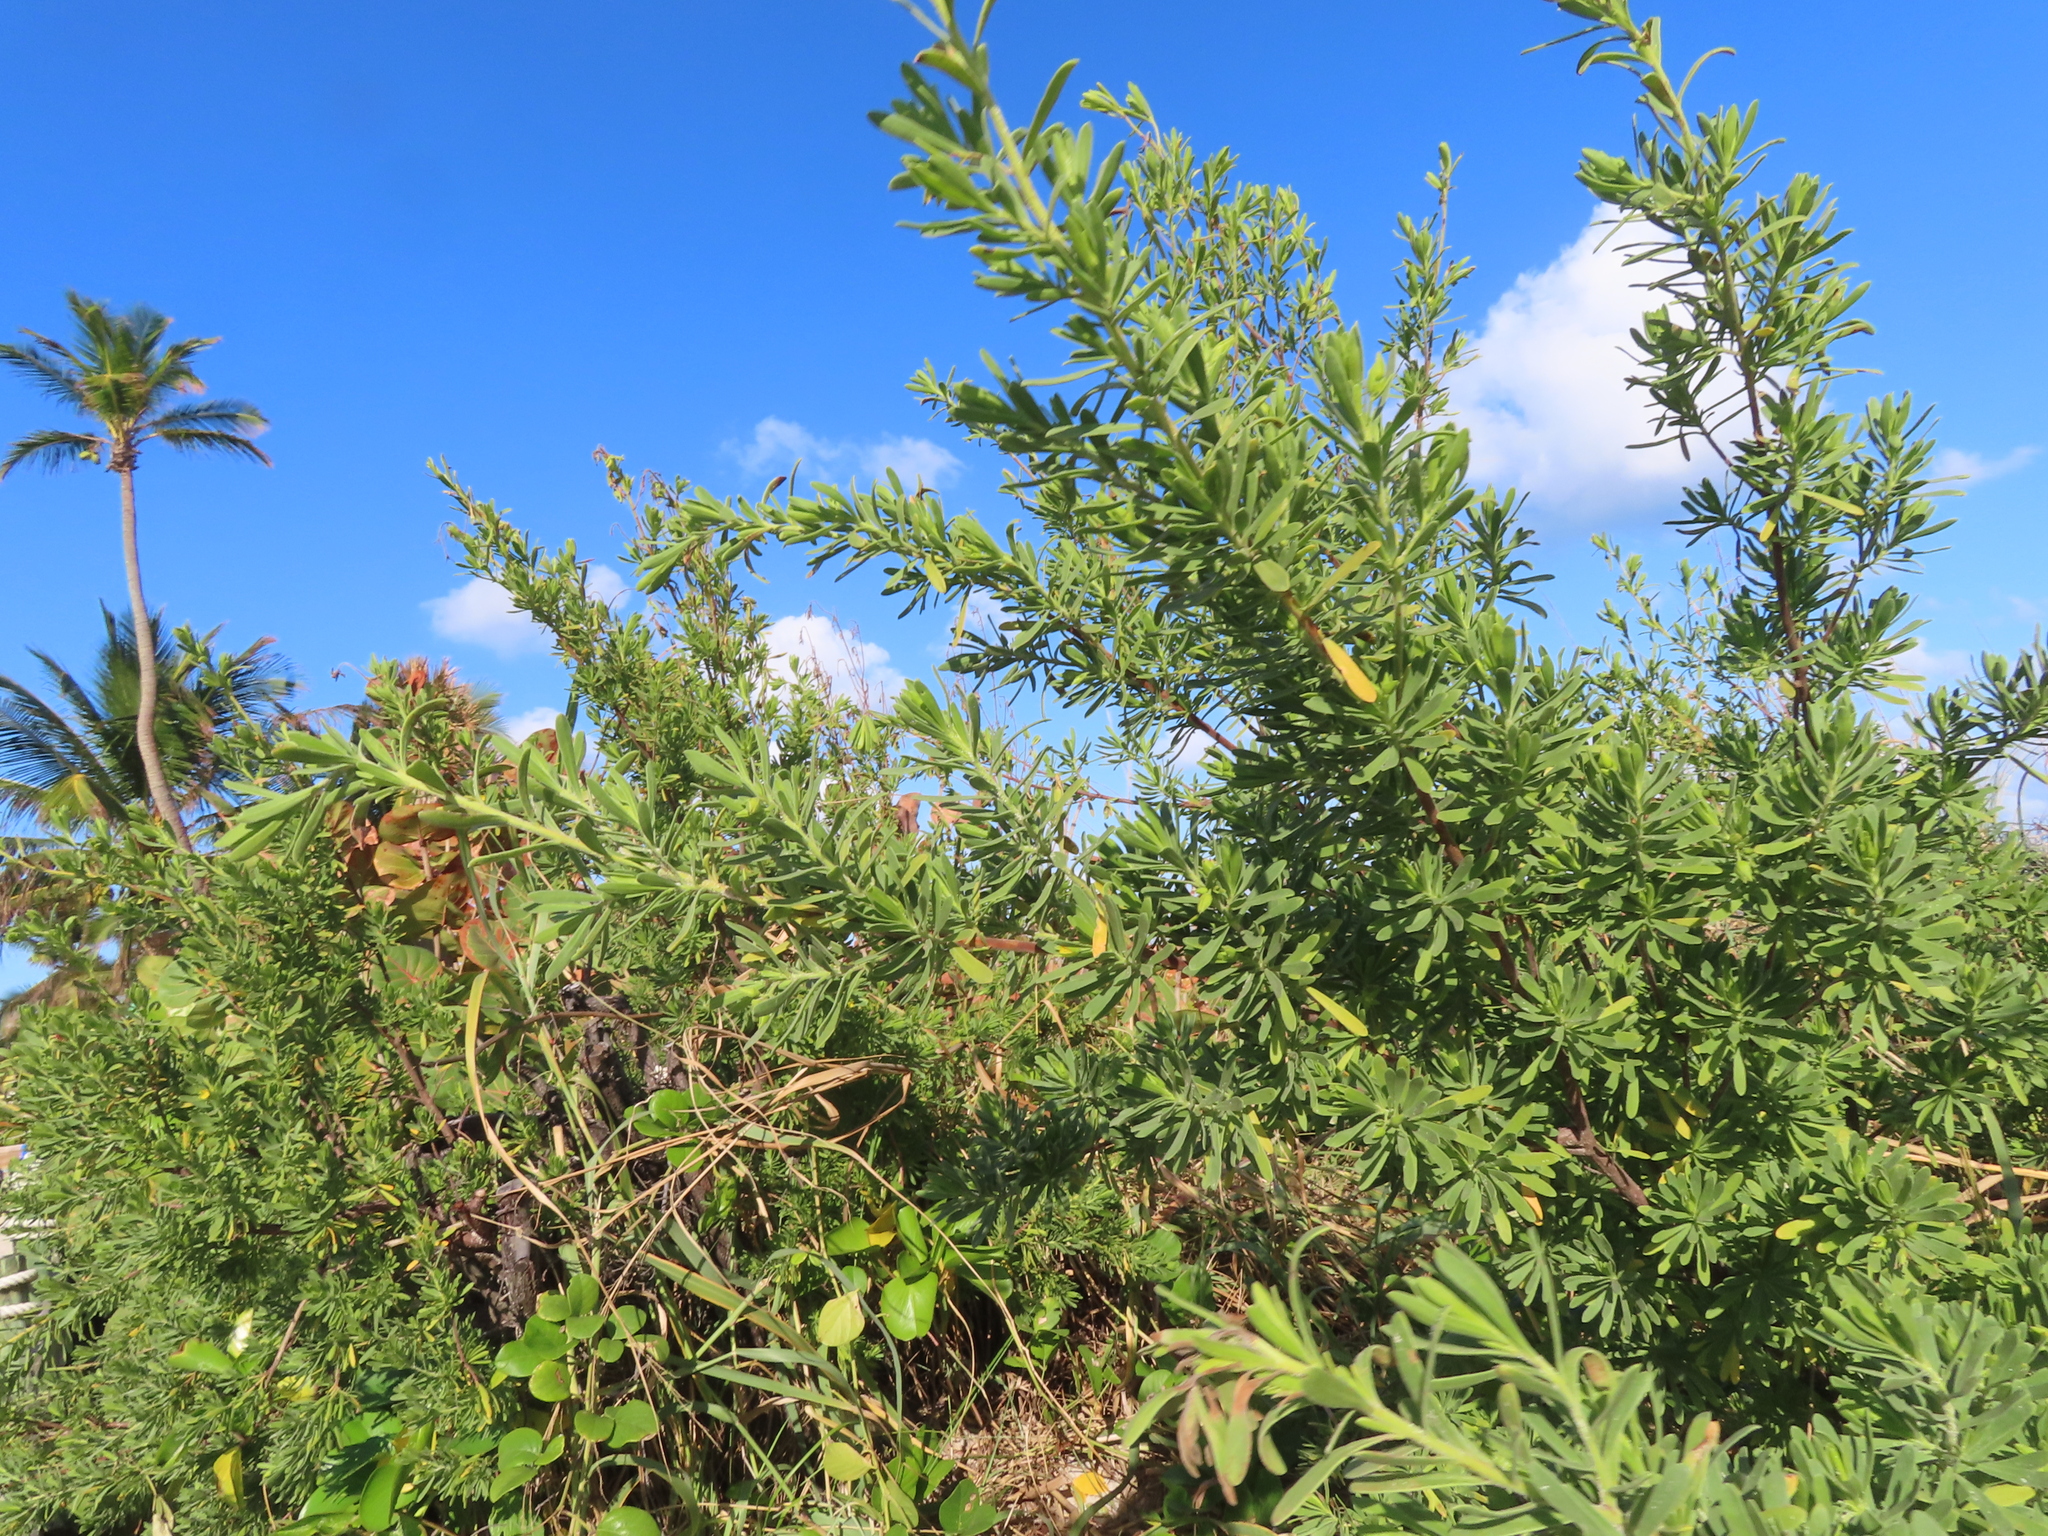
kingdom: Plantae
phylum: Tracheophyta
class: Magnoliopsida
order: Fabales
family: Surianaceae
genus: Suriana
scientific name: Suriana maritima
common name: Bay-cedar
